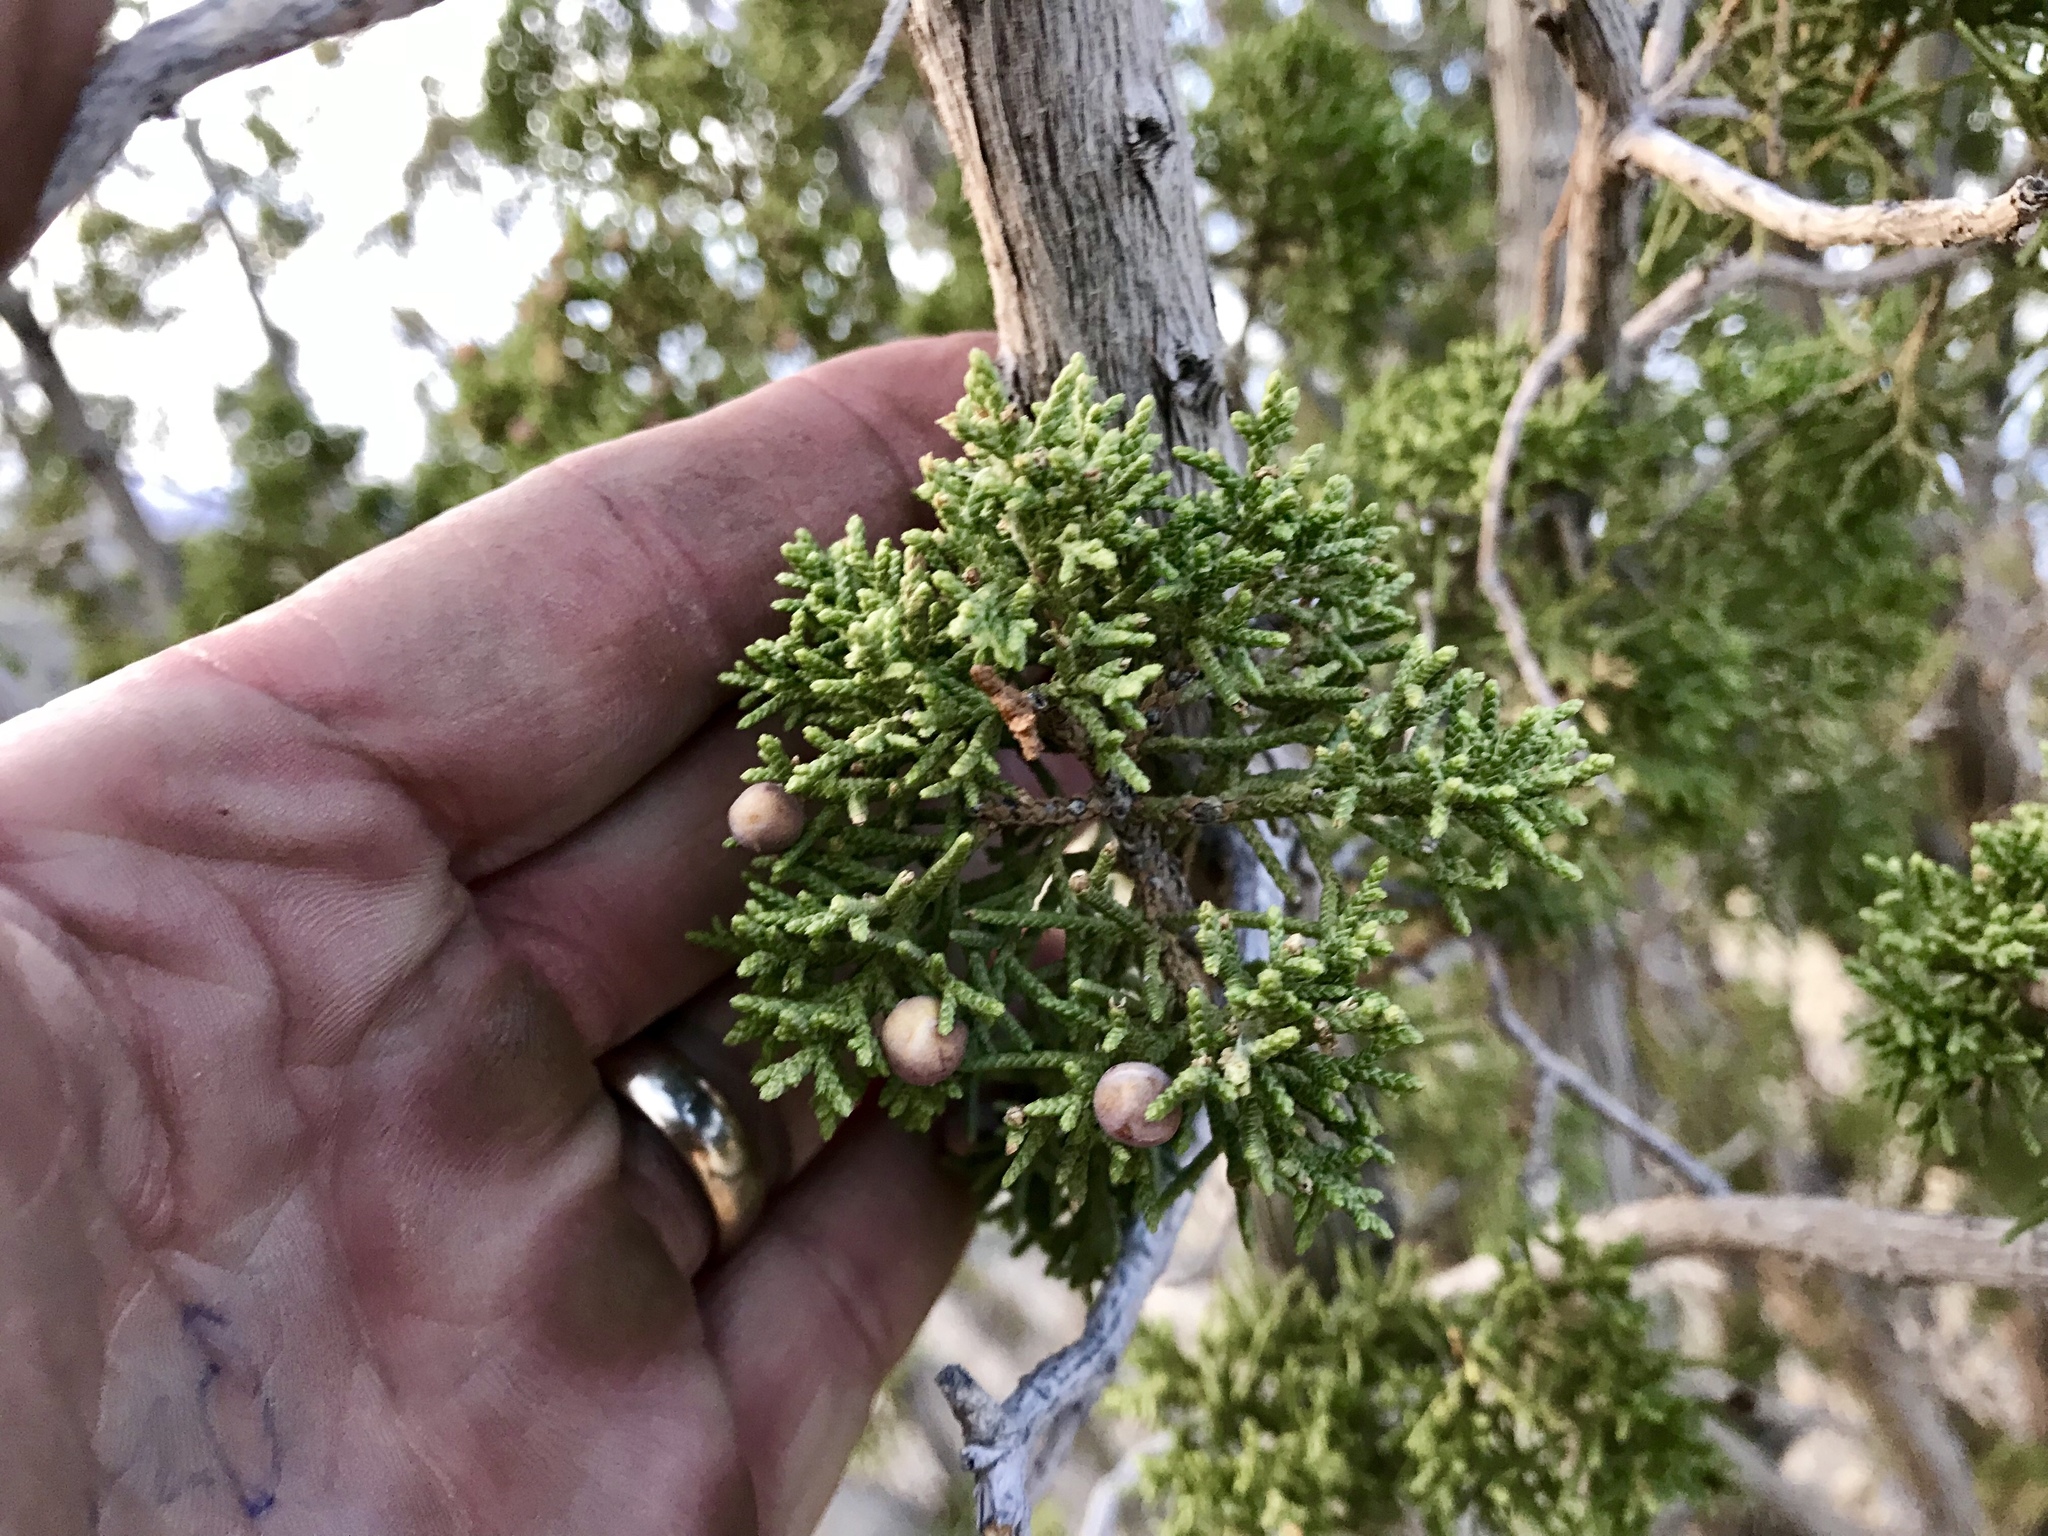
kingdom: Plantae
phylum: Tracheophyta
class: Pinopsida
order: Pinales
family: Cupressaceae
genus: Juniperus
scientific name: Juniperus arizonica
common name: Arizona juniper
